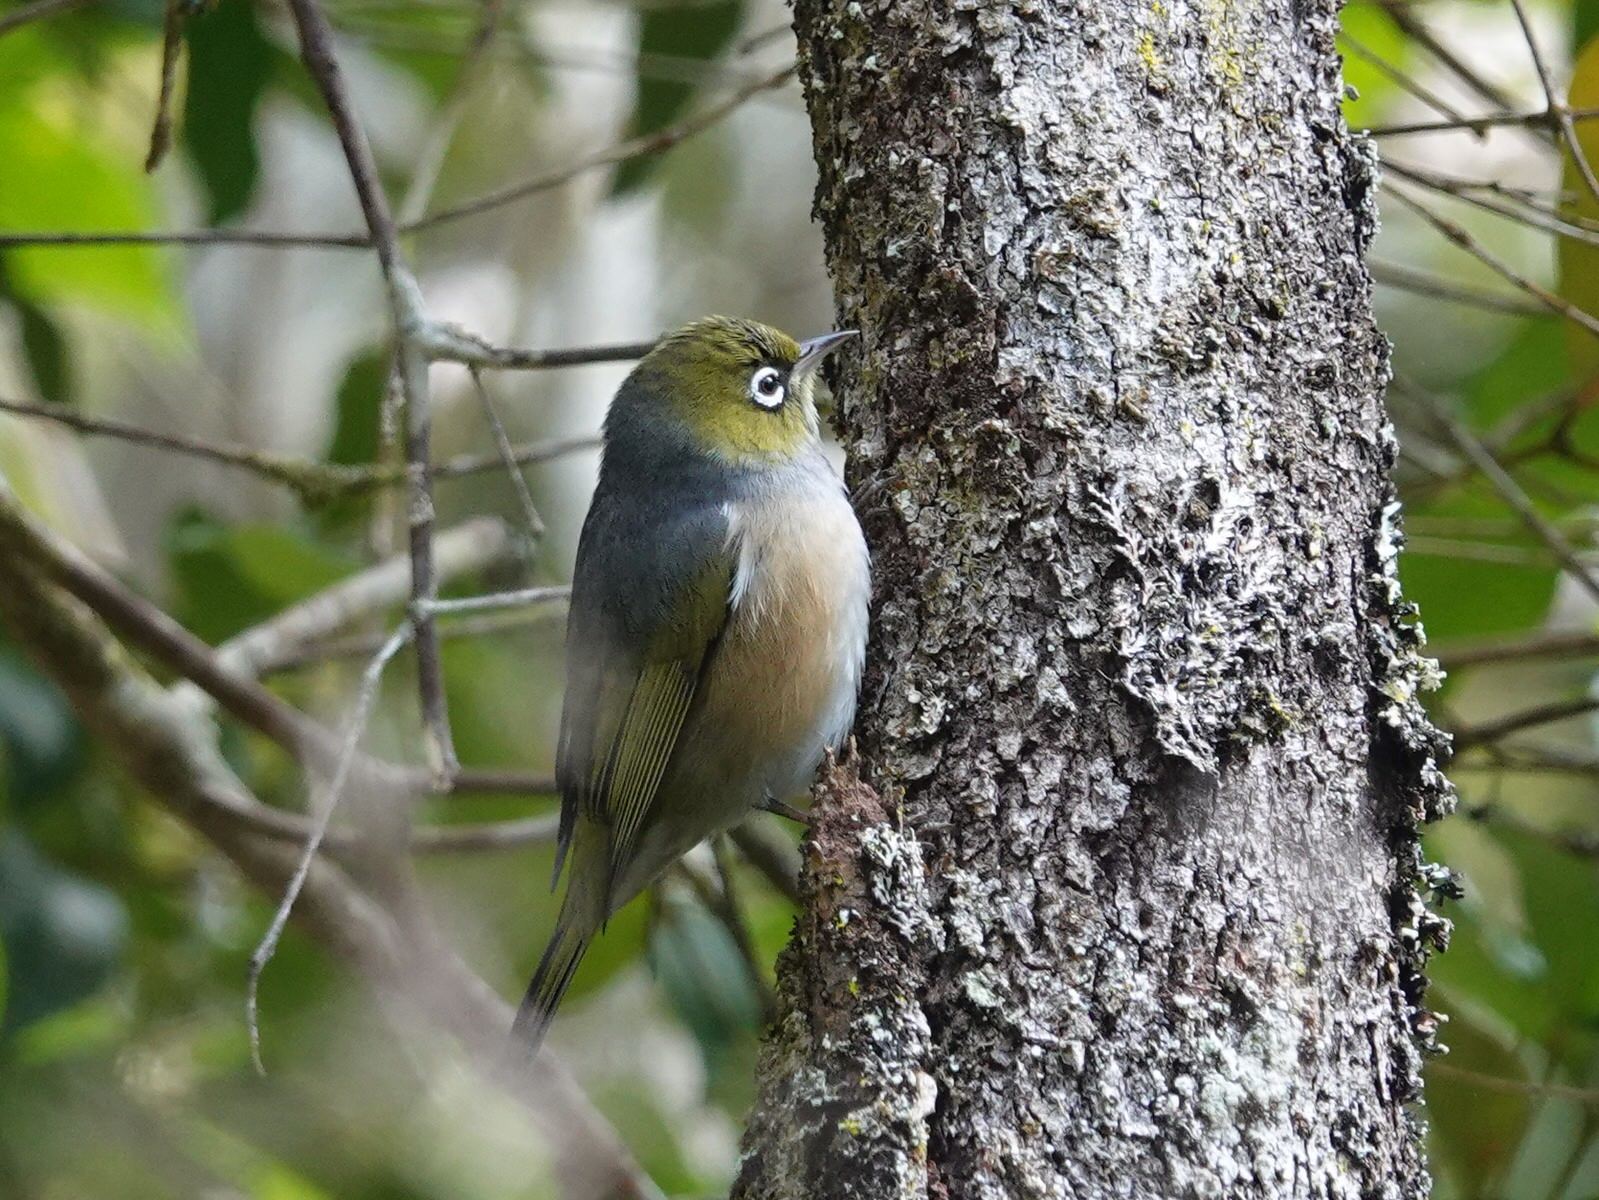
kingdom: Animalia
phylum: Chordata
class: Aves
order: Passeriformes
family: Zosteropidae
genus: Zosterops
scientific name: Zosterops lateralis
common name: Silvereye
